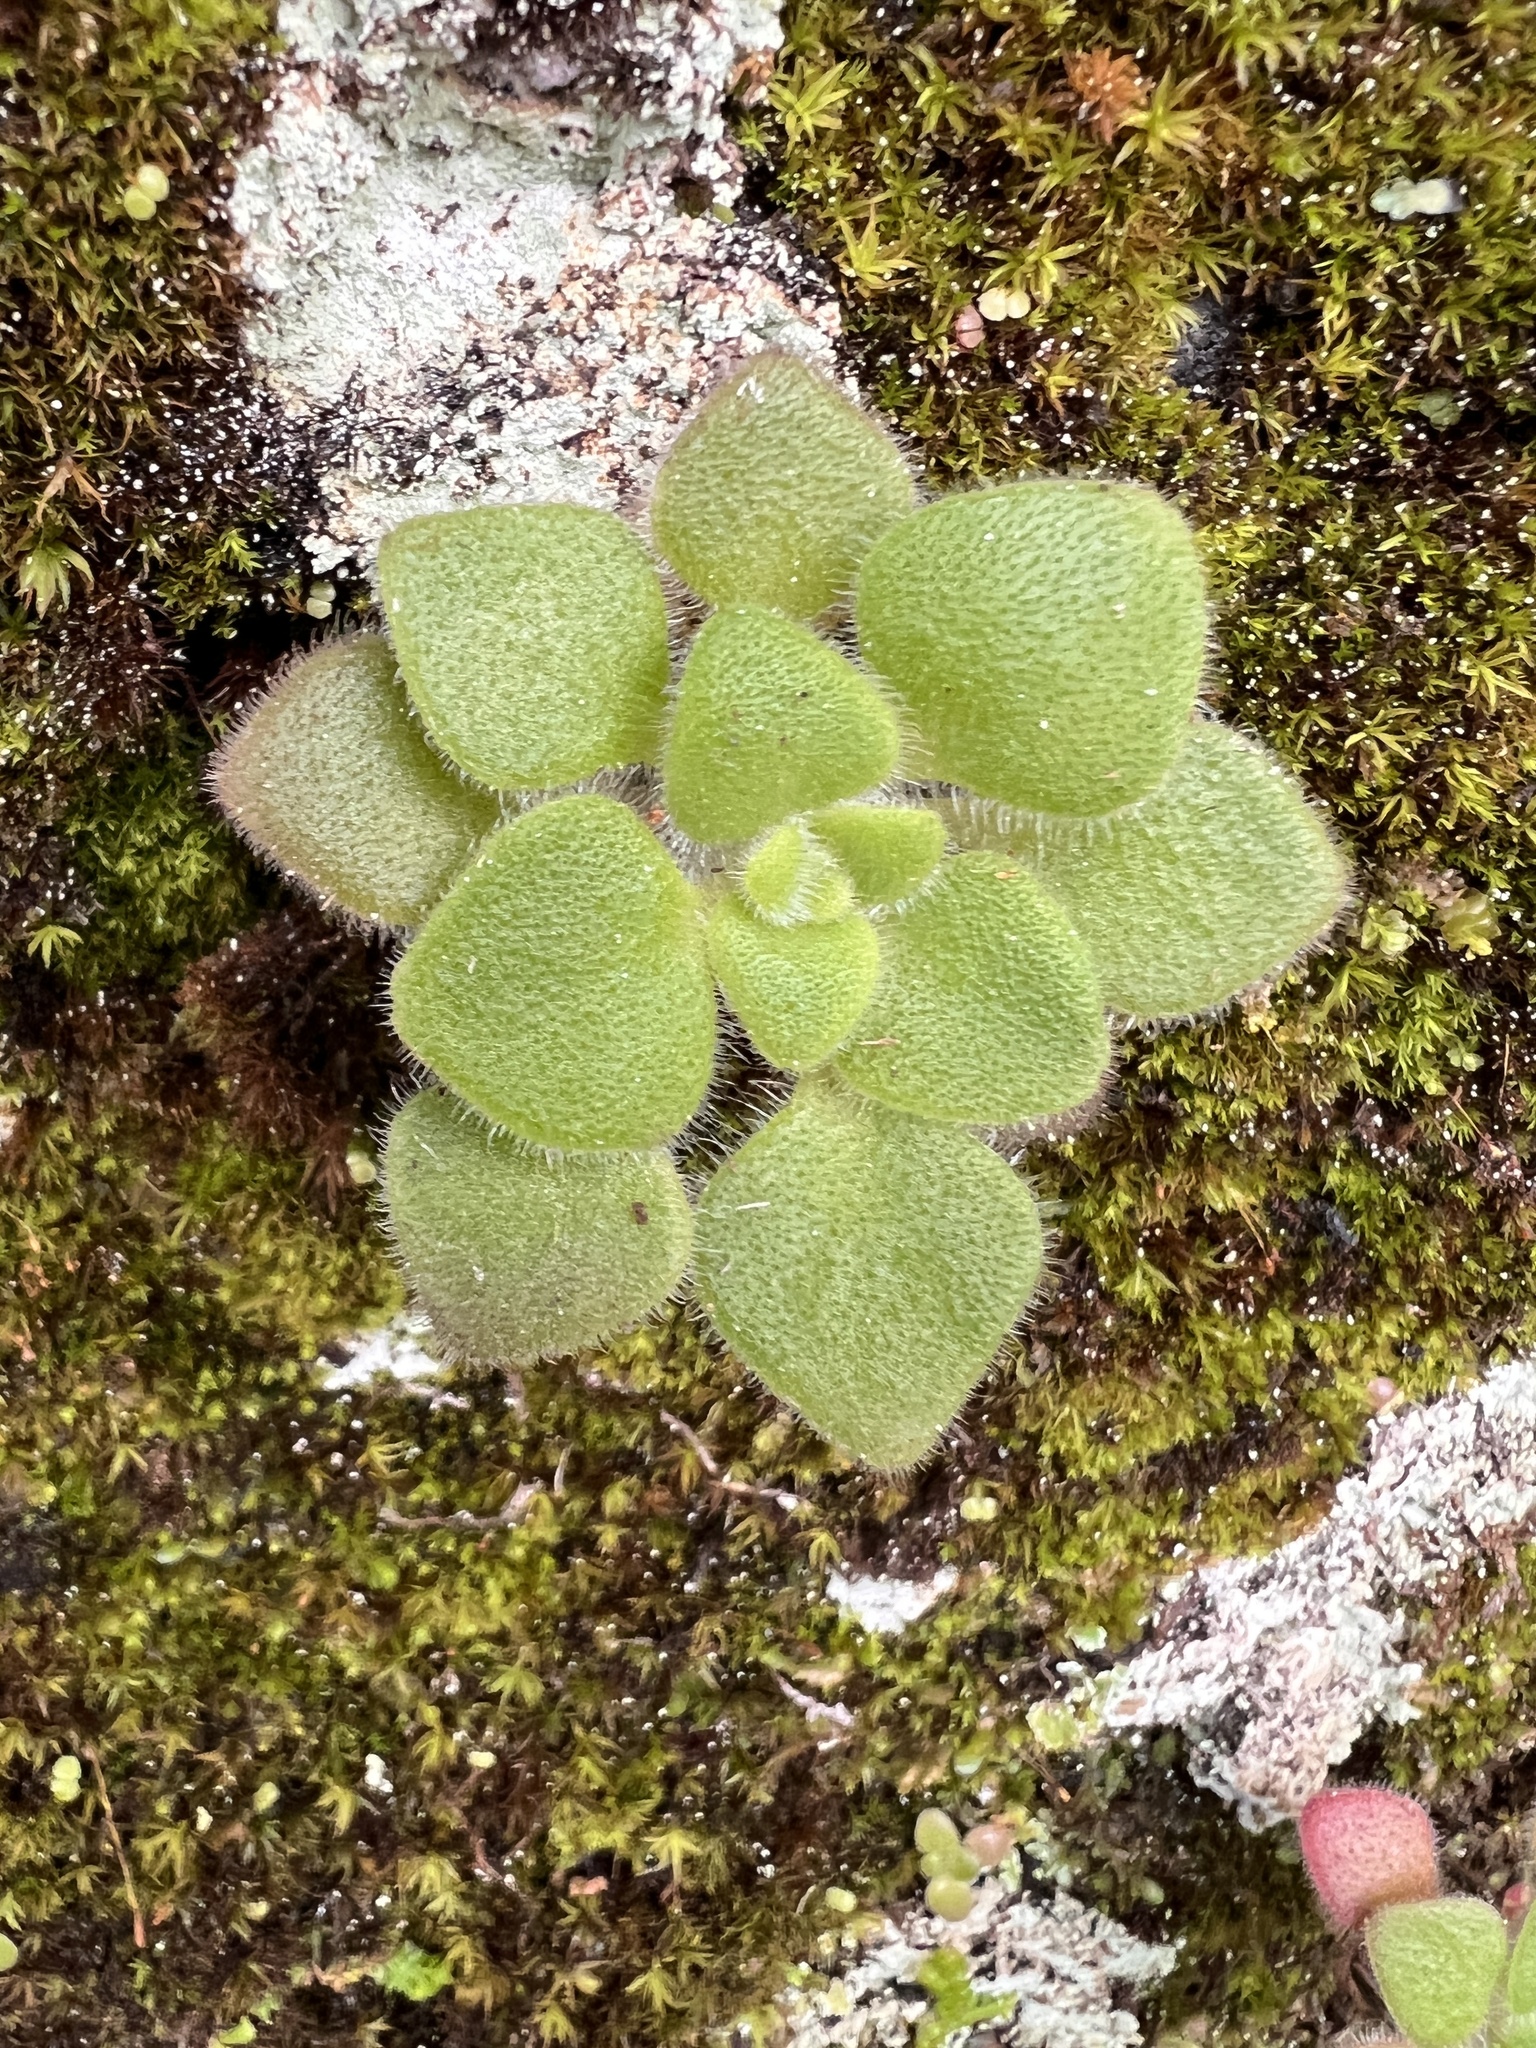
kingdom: Plantae
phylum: Tracheophyta
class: Magnoliopsida
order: Saxifragales
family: Crassulaceae
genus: Aichryson
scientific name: Aichryson villosum
